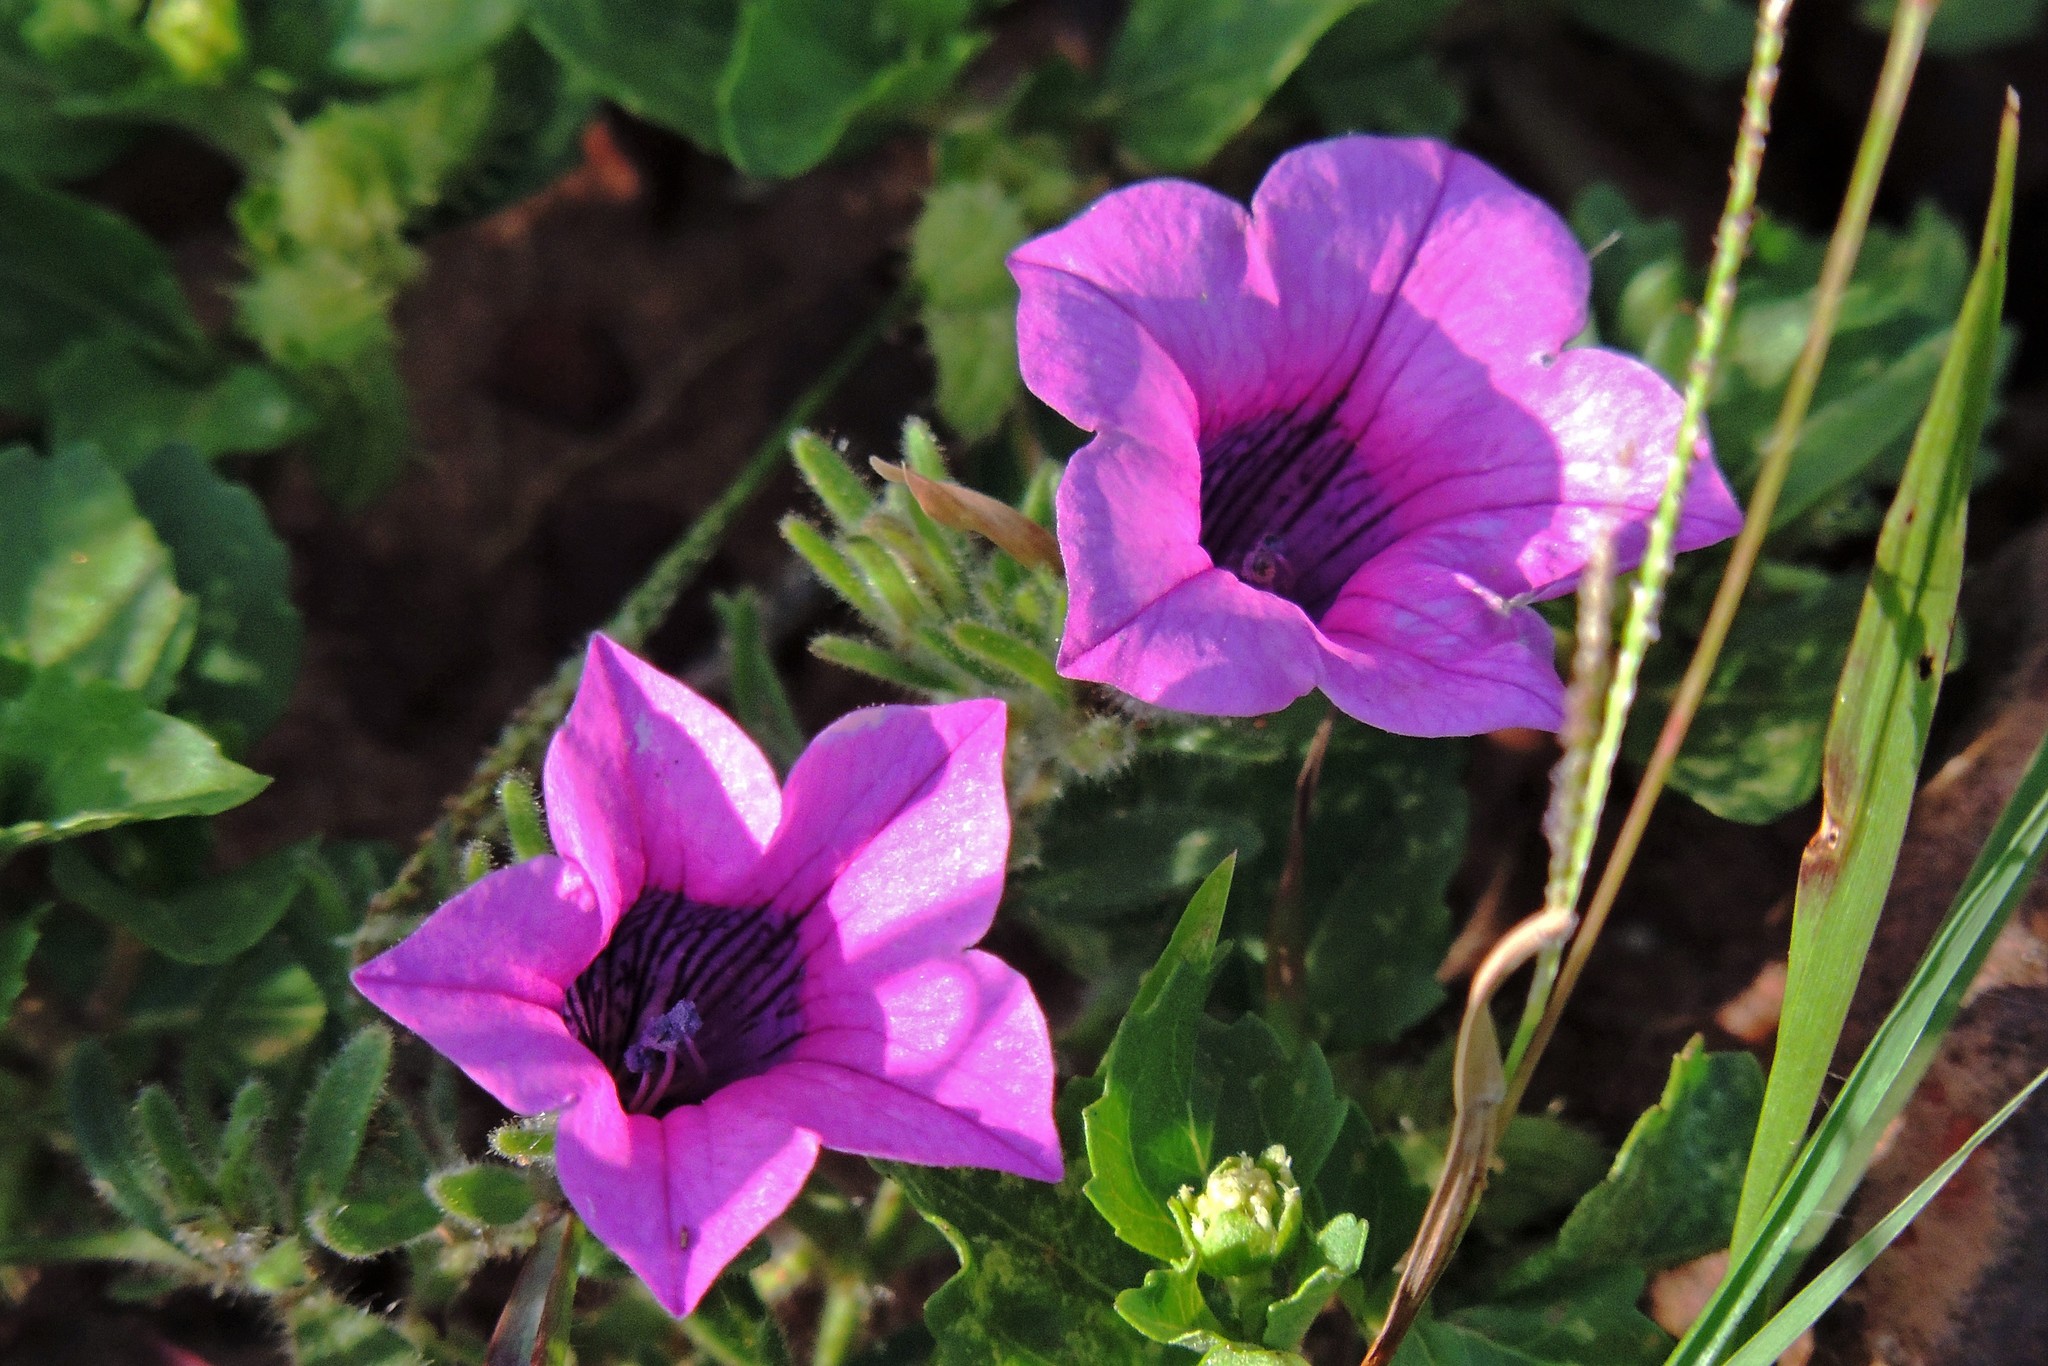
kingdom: Plantae
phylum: Tracheophyta
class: Magnoliopsida
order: Solanales
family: Solanaceae
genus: Petunia
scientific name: Petunia integrifolia
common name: Violet-flower petunia
